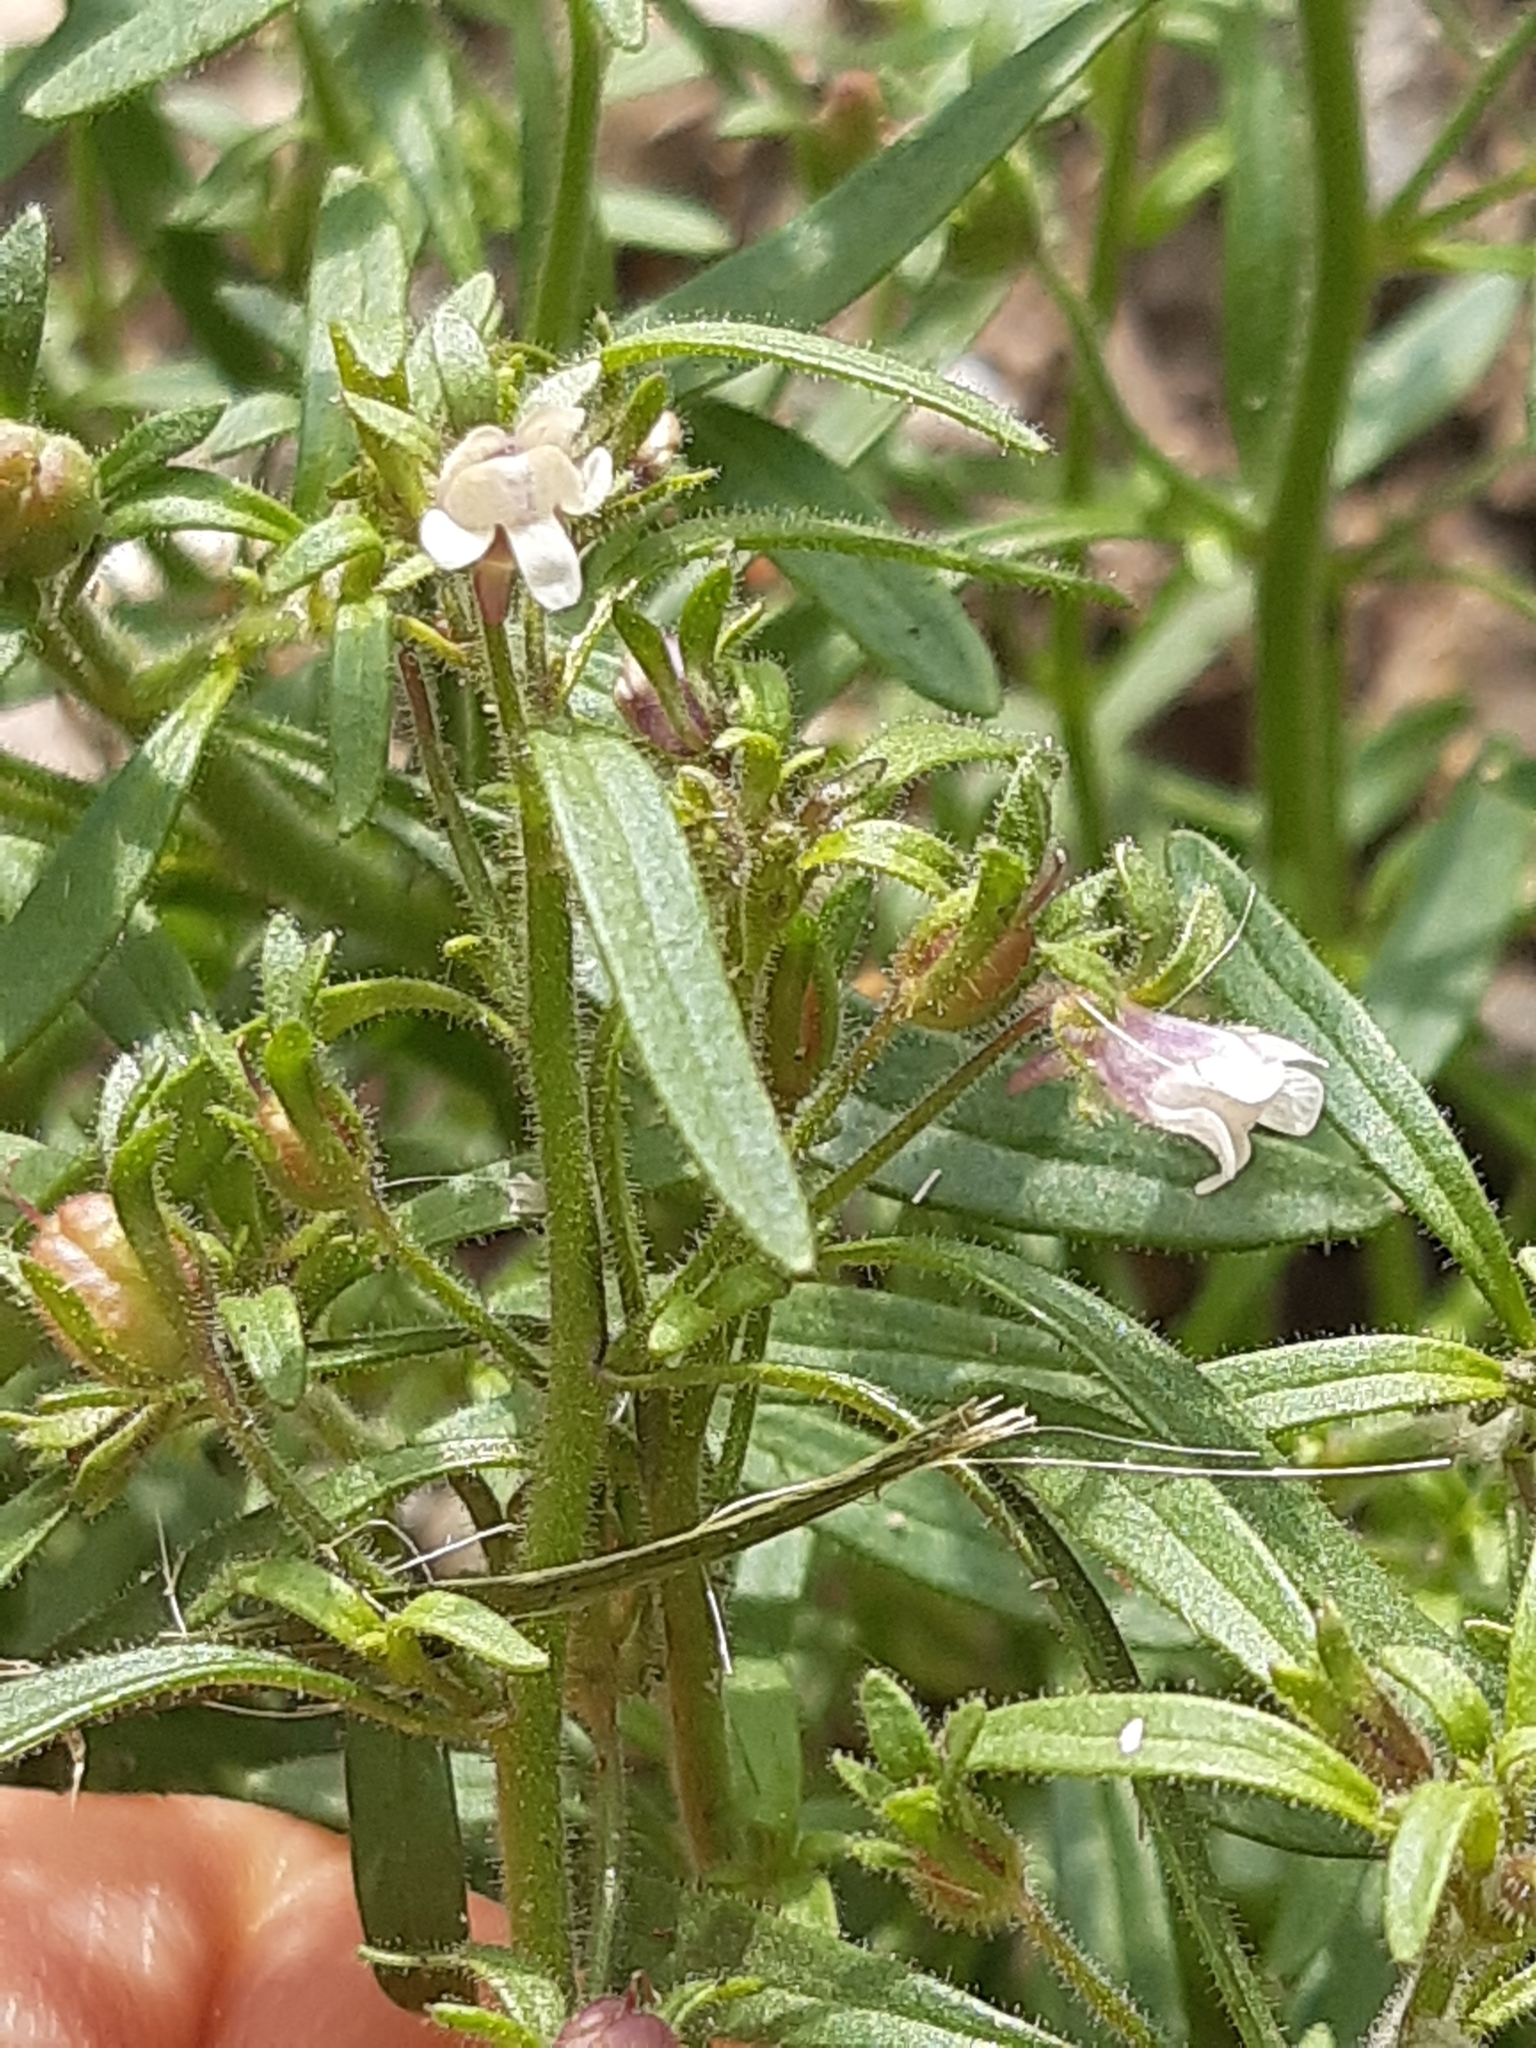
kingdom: Plantae
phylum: Tracheophyta
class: Magnoliopsida
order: Lamiales
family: Plantaginaceae
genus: Chaenorhinum
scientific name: Chaenorhinum minus
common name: Dwarf snapdragon
